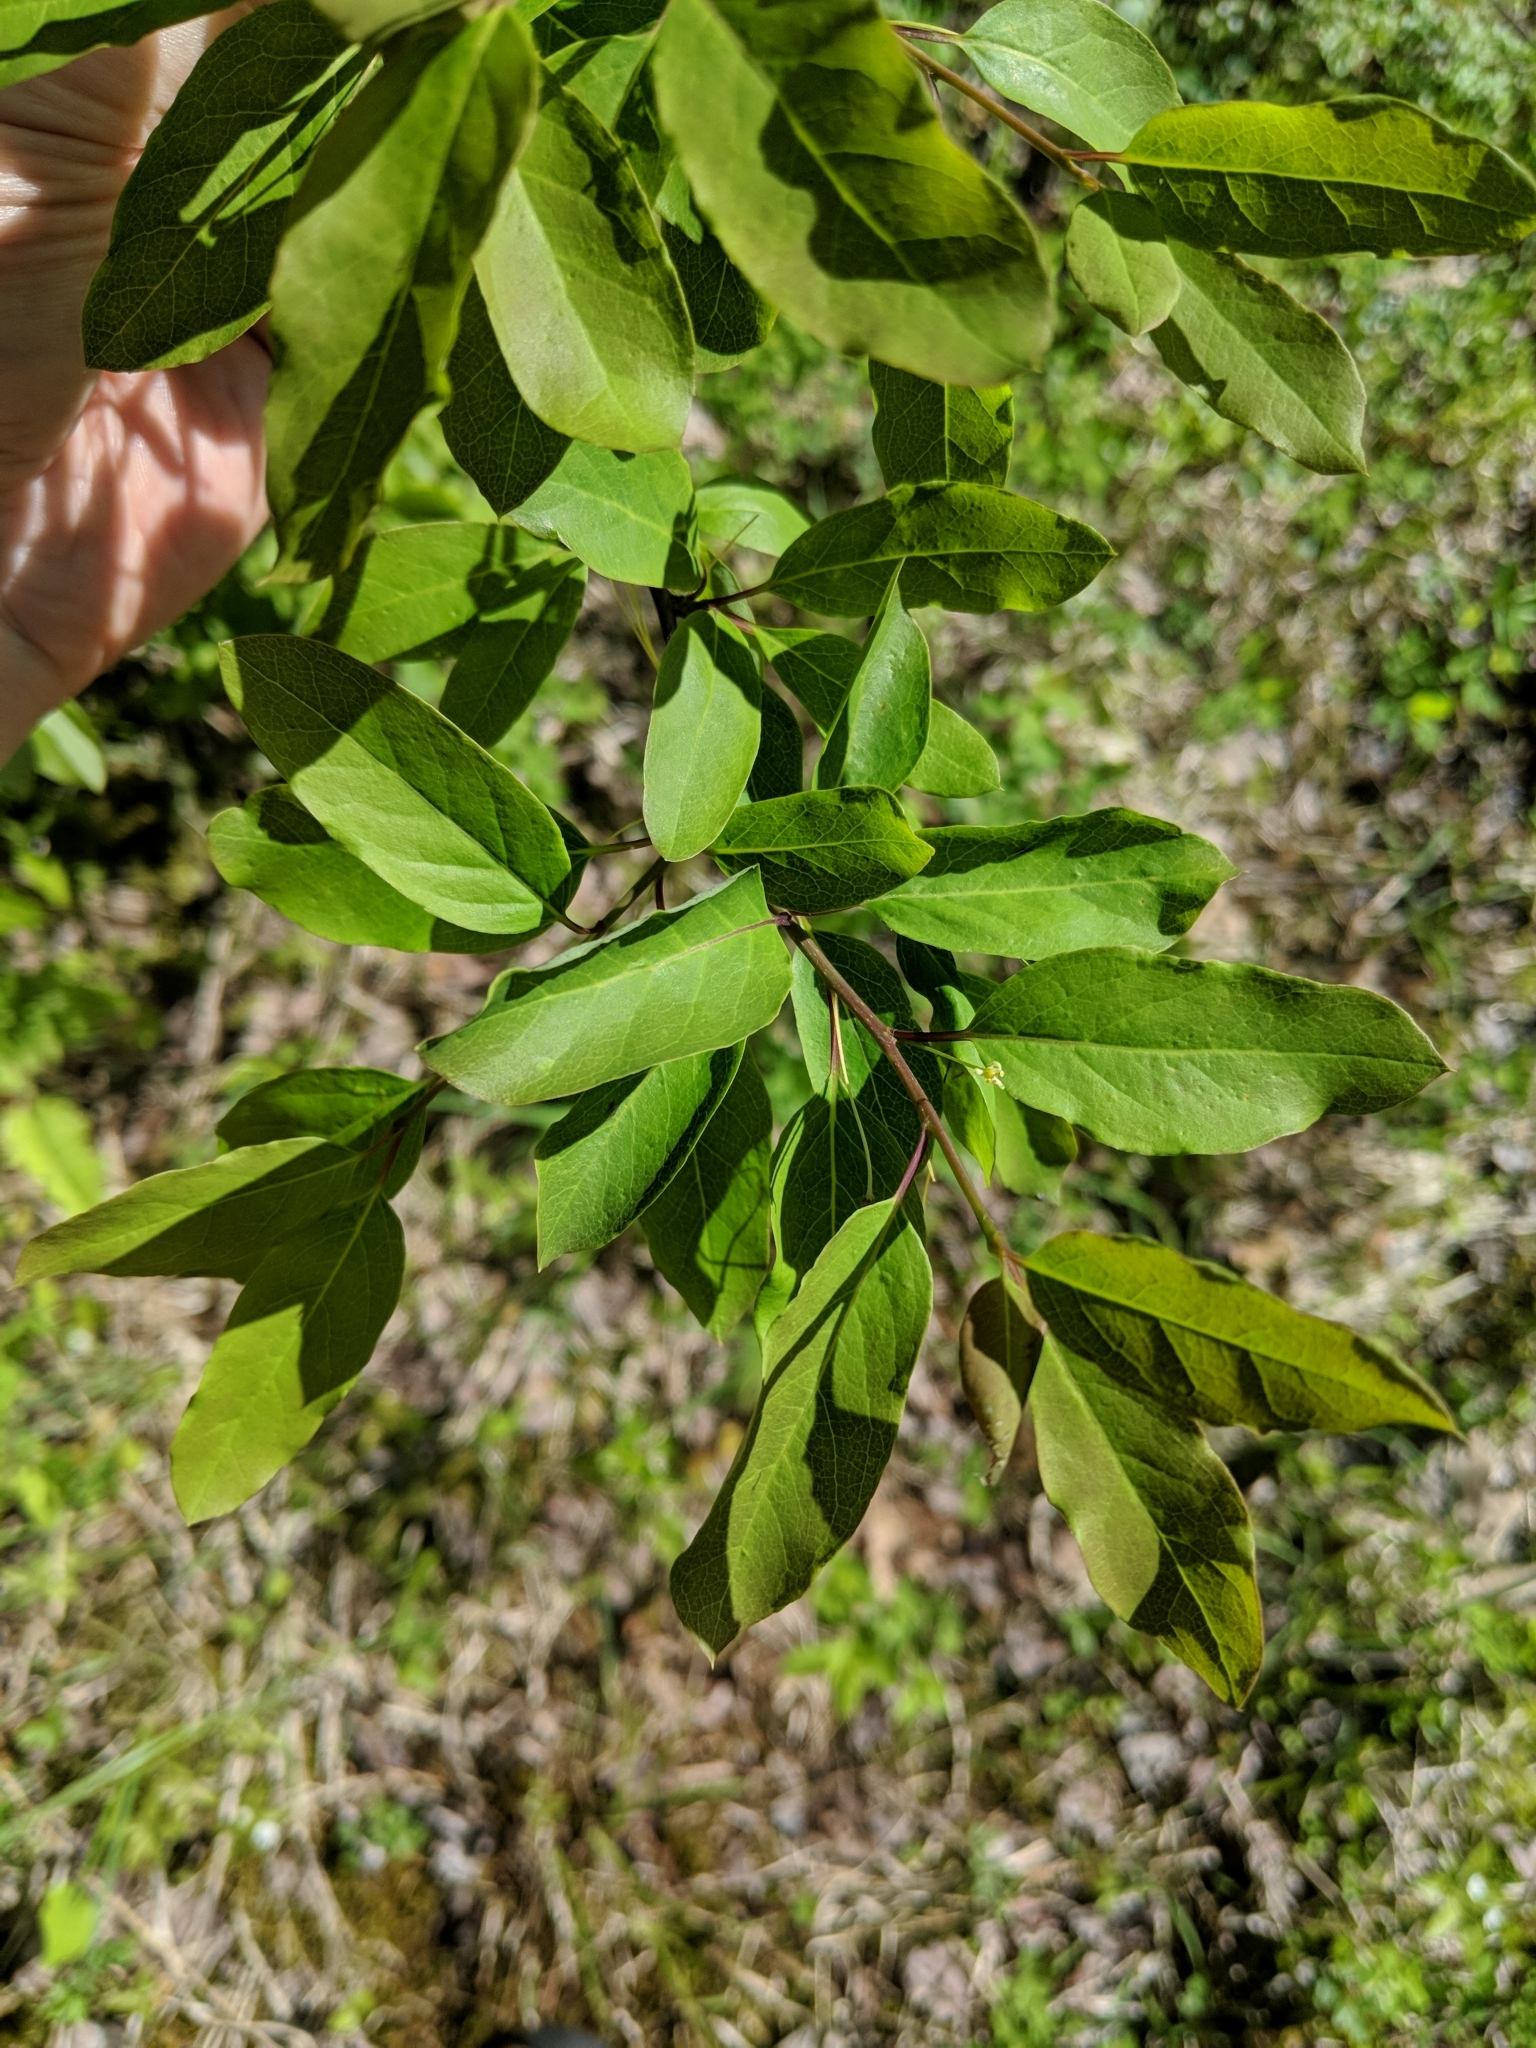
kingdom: Plantae
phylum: Tracheophyta
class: Magnoliopsida
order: Aquifoliales
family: Aquifoliaceae
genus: Ilex
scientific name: Ilex mucronata
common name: Catberry
